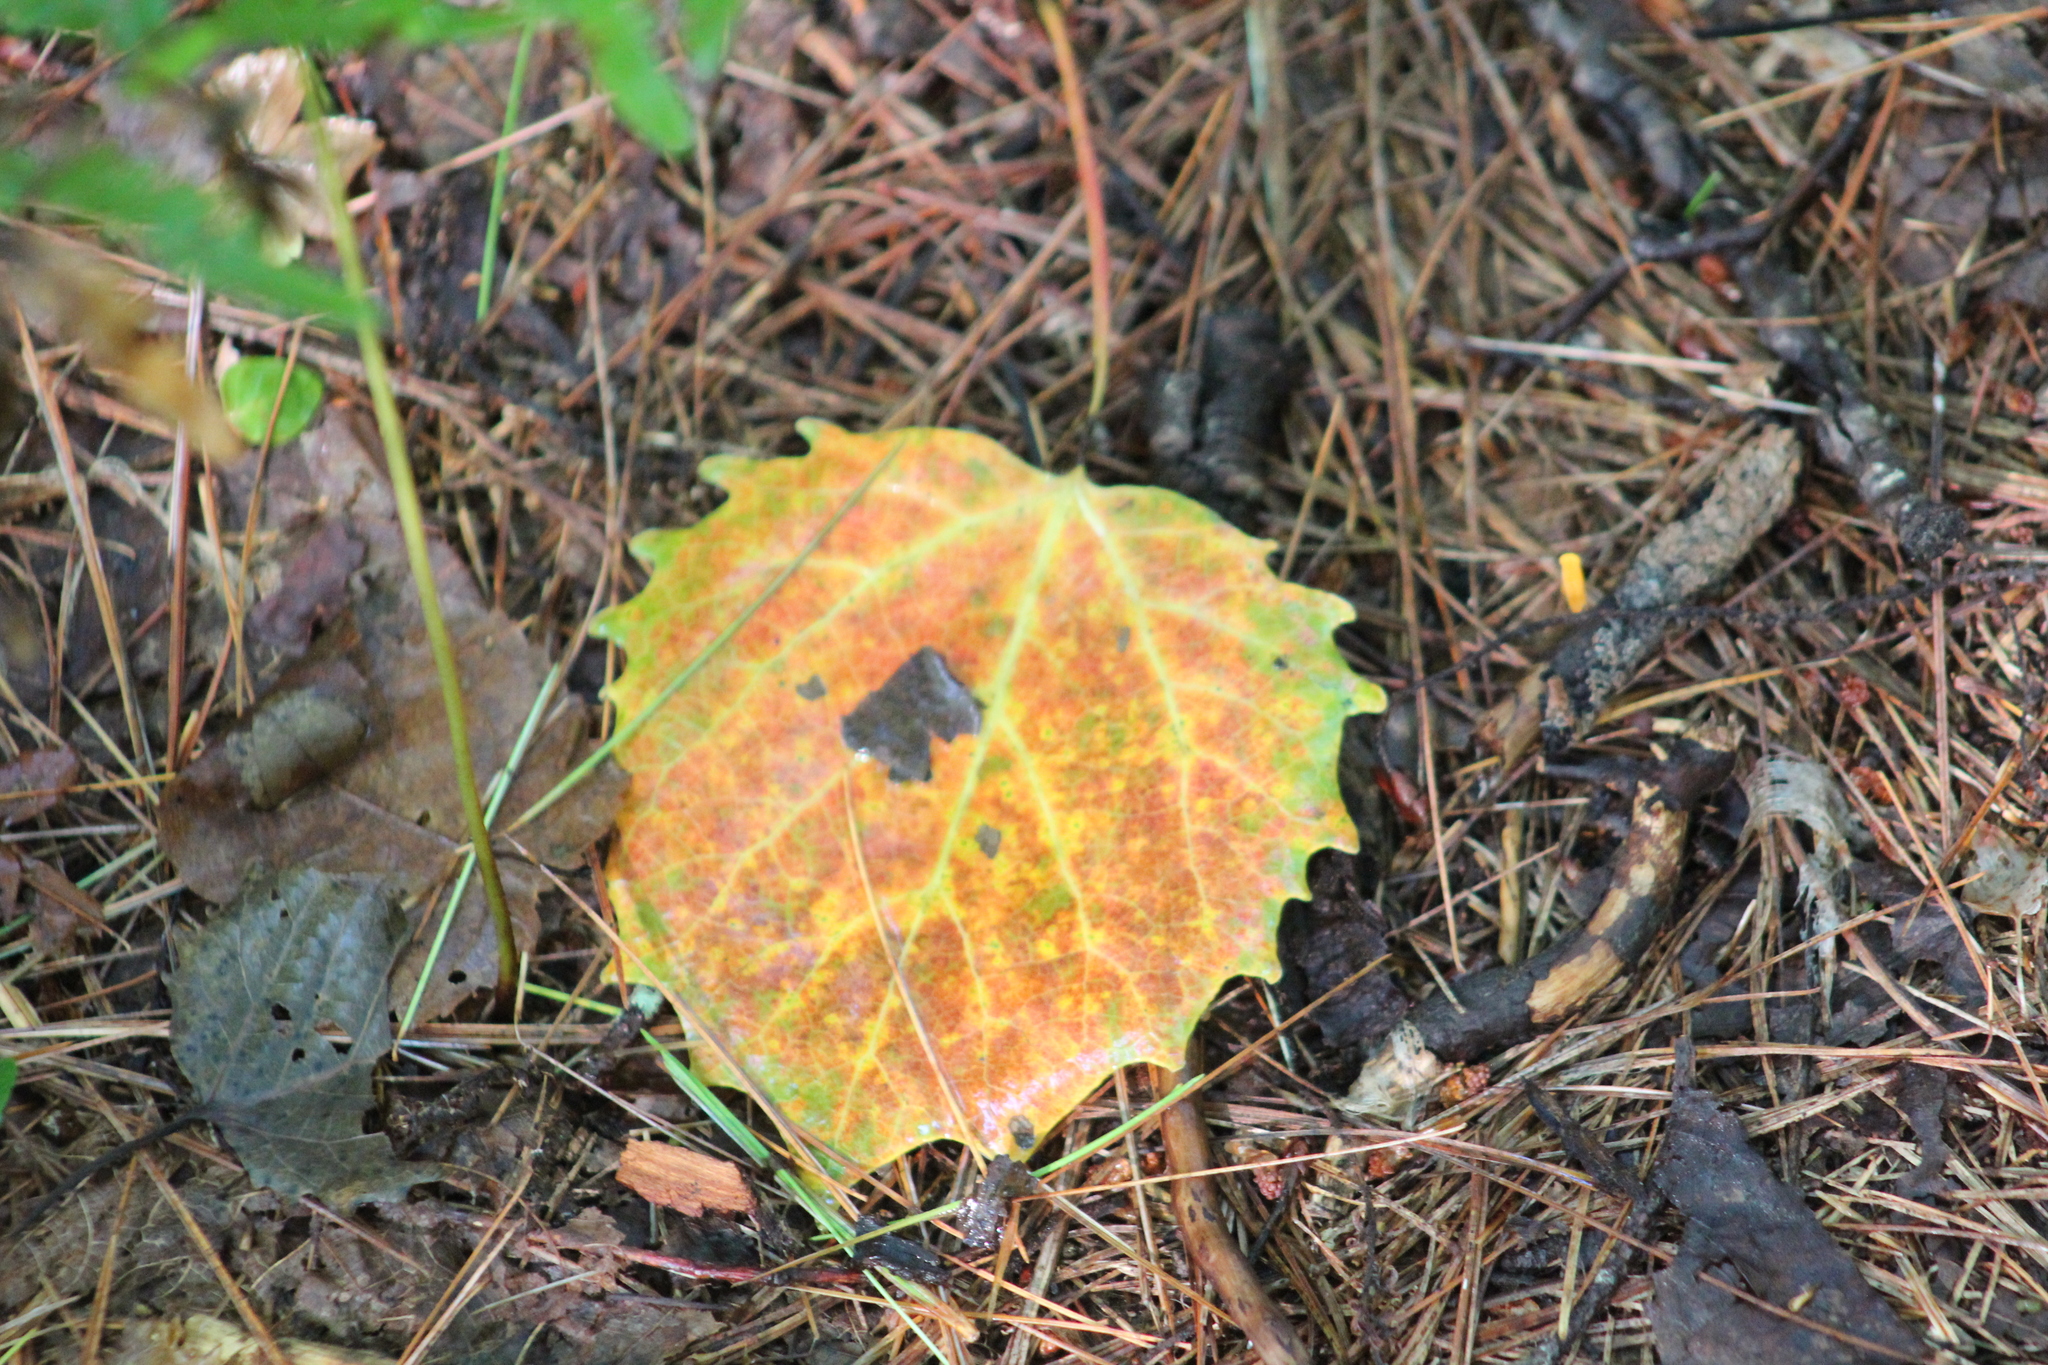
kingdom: Plantae
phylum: Tracheophyta
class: Magnoliopsida
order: Malpighiales
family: Salicaceae
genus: Populus
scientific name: Populus grandidentata
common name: Bigtooth aspen
